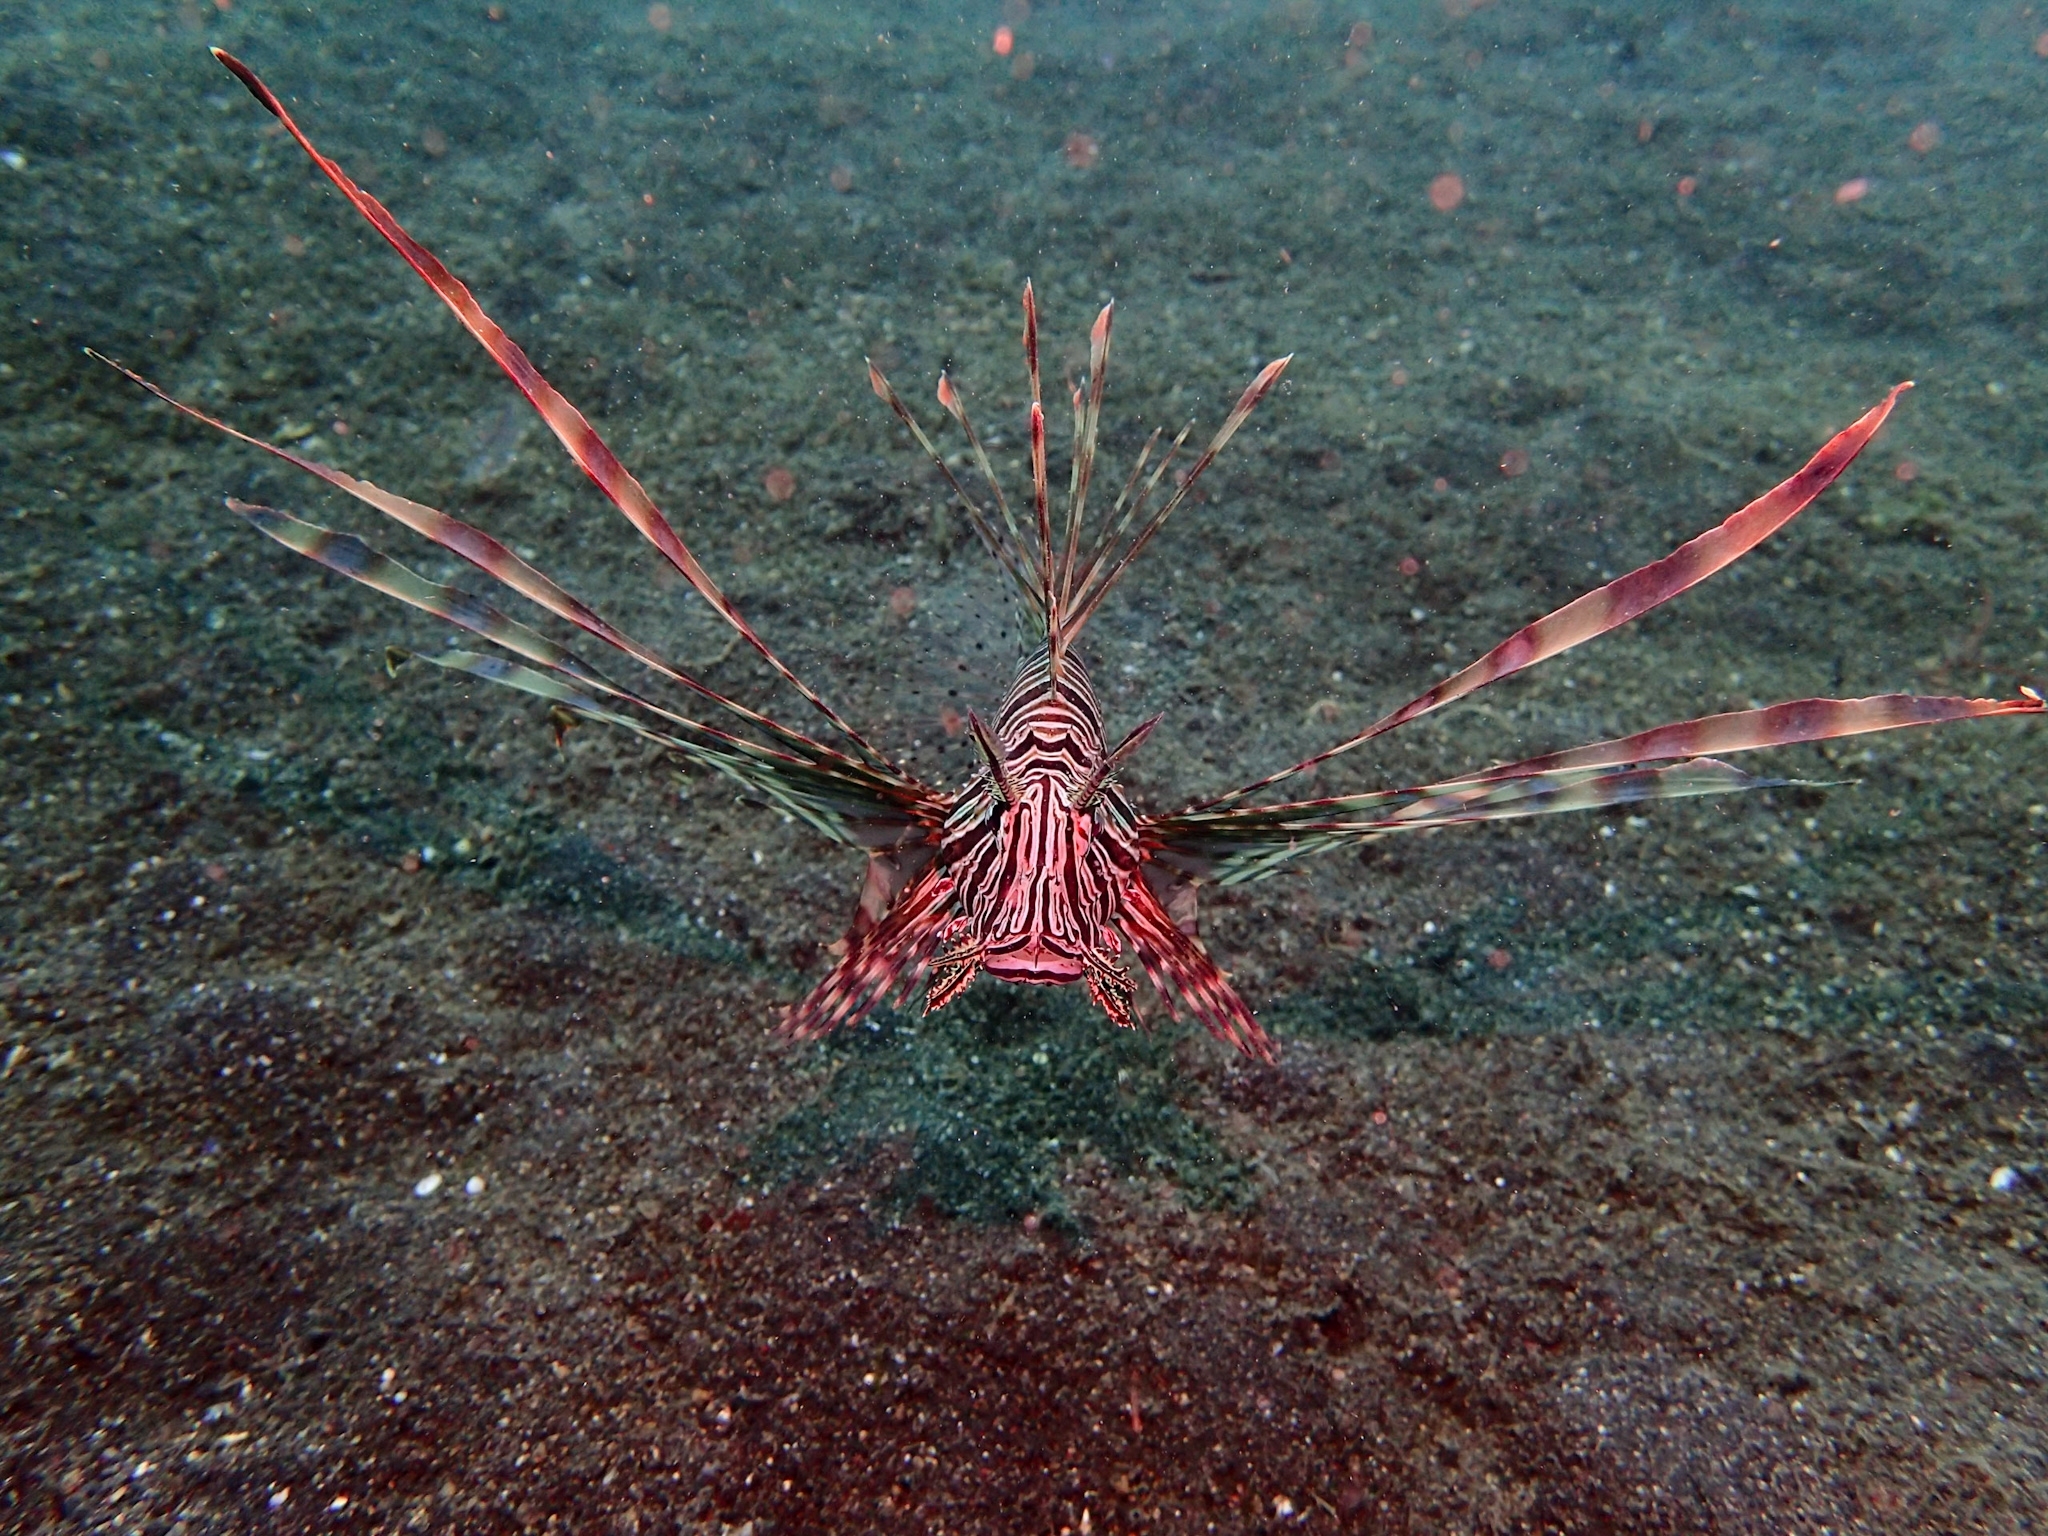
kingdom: Animalia
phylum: Chordata
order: Scorpaeniformes
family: Scorpaenidae
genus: Pterois
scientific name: Pterois volitans
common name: Lionfish
